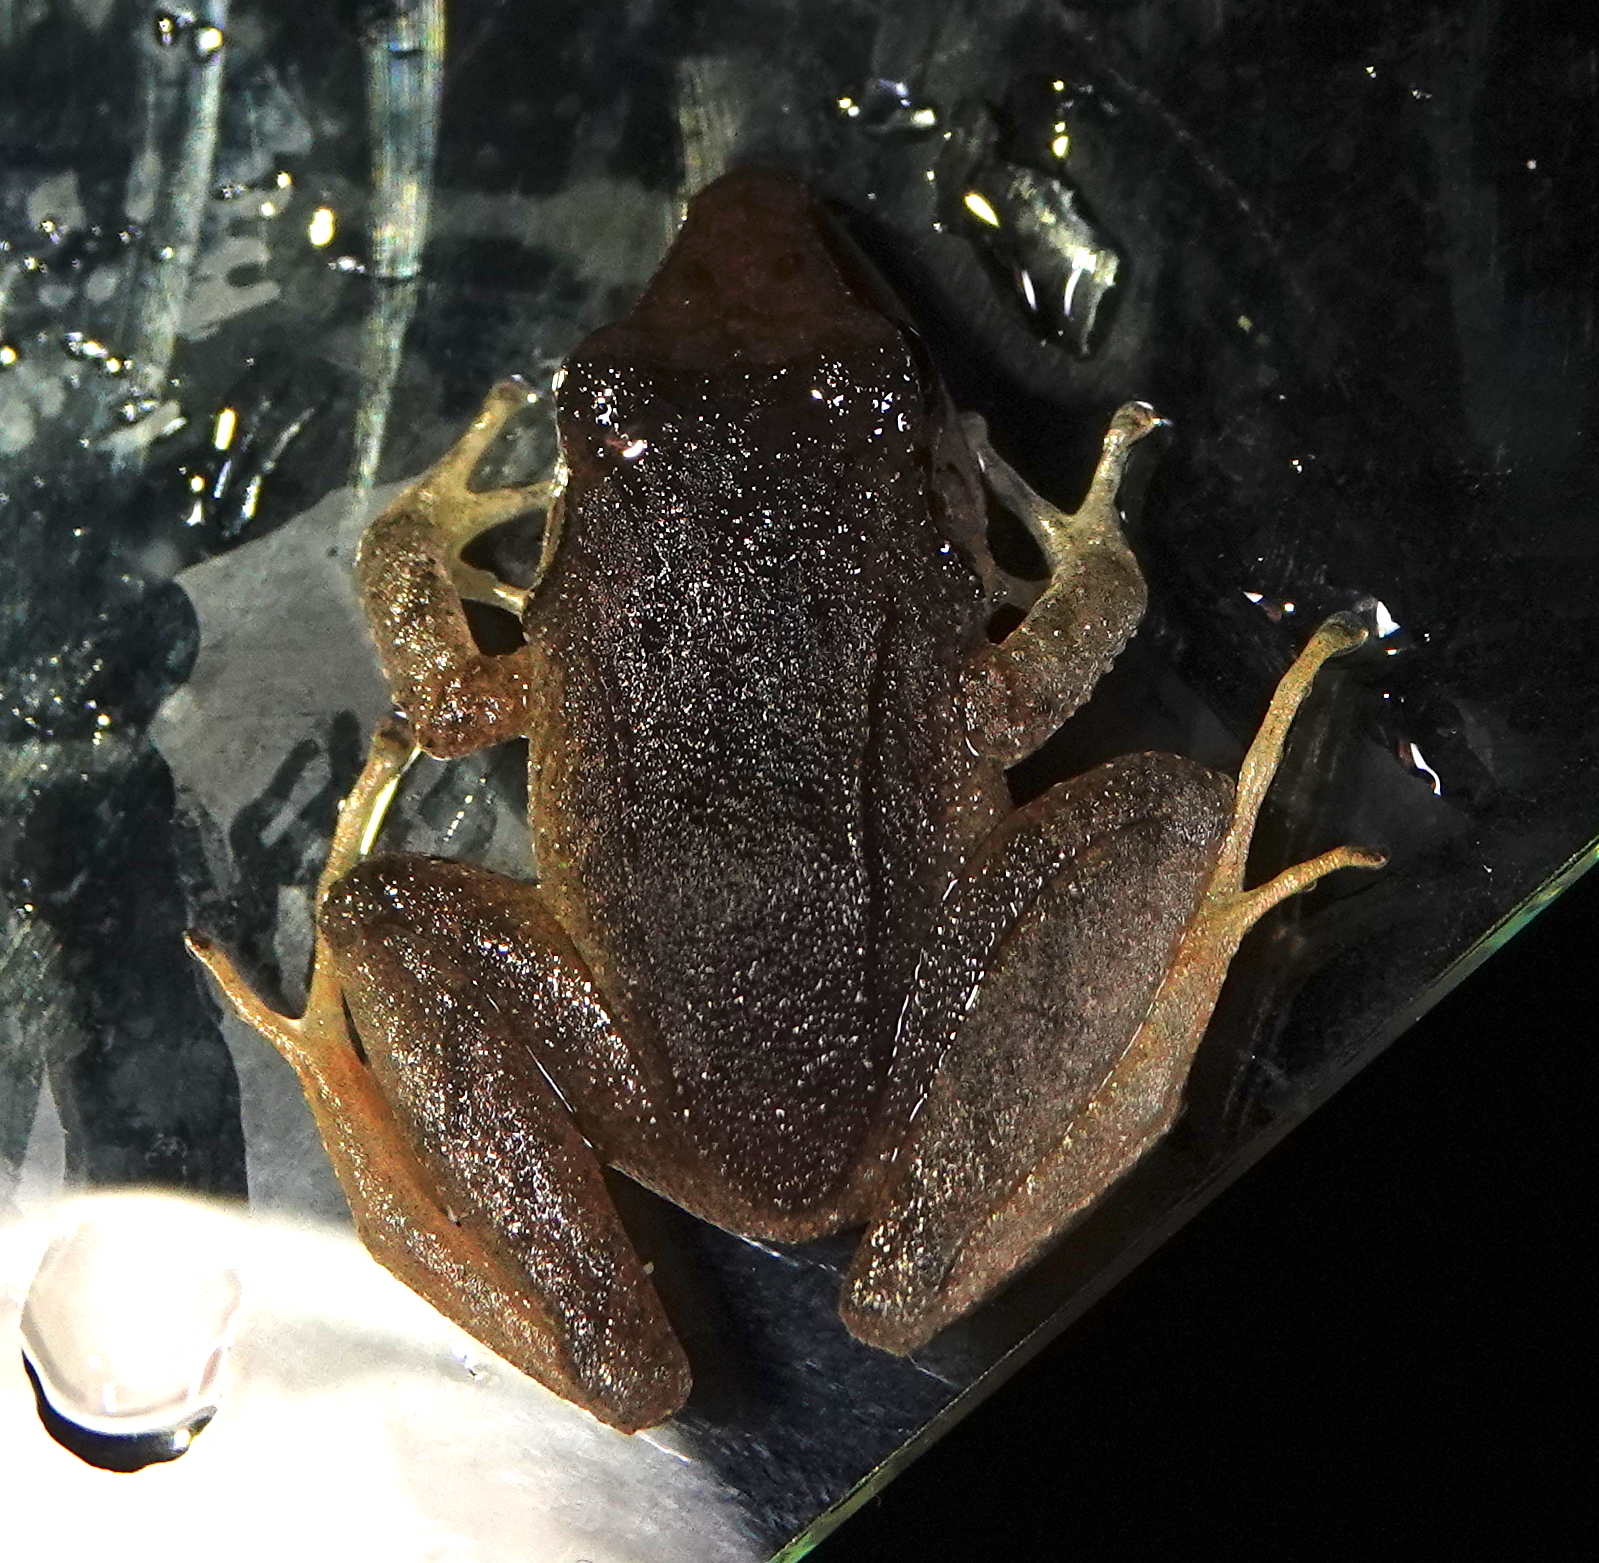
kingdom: Animalia
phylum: Chordata
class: Amphibia
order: Anura
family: Craugastoridae
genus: Pristimantis
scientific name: Pristimantis achatinus
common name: Cachabi robber frog
